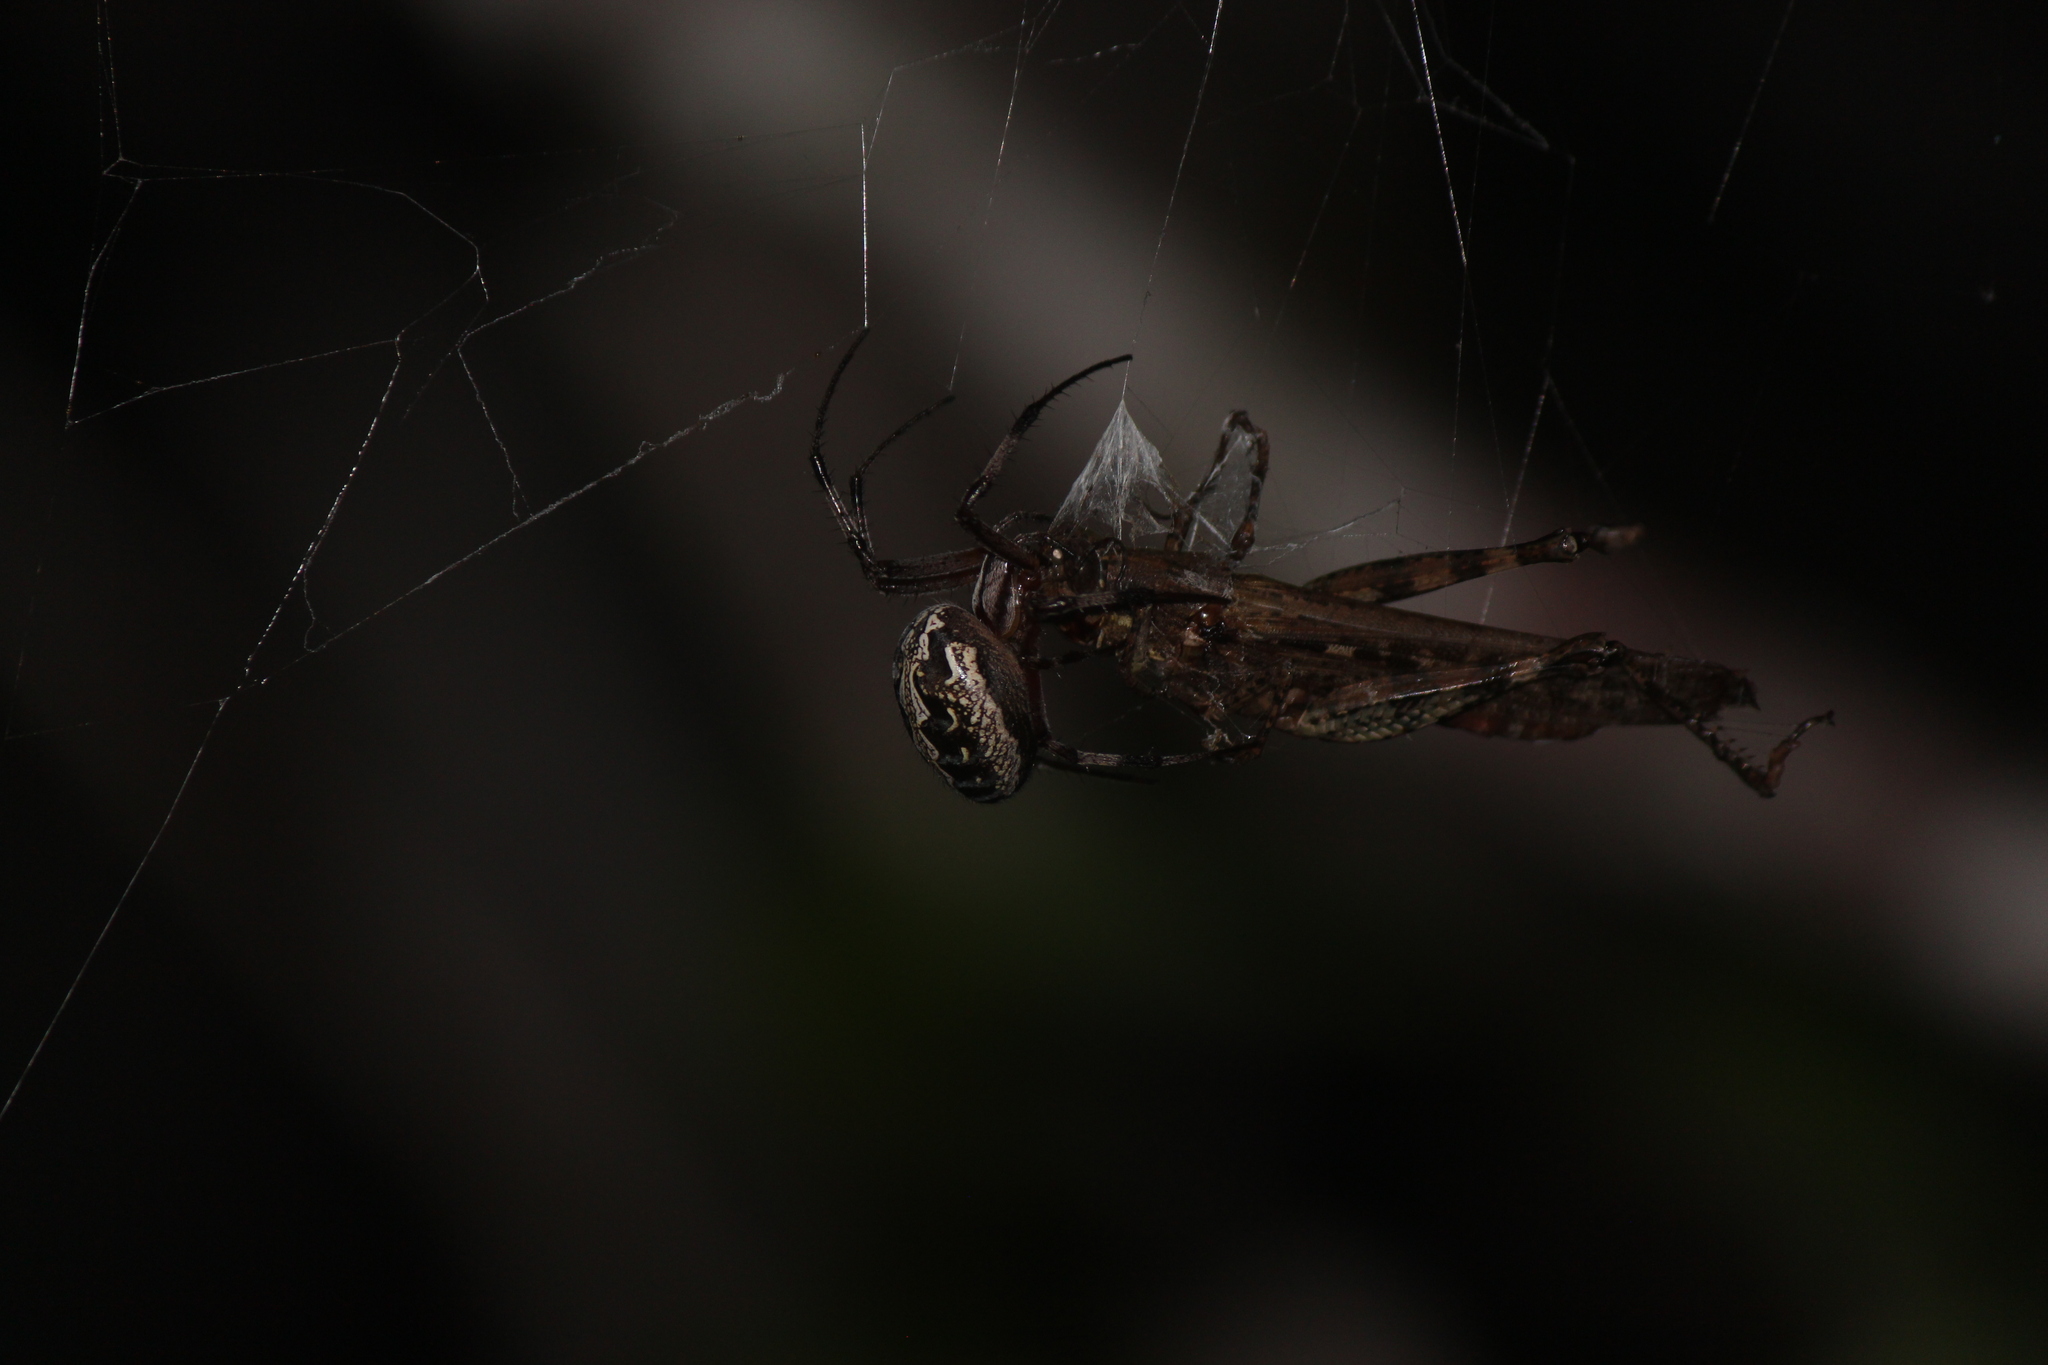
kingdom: Animalia
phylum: Arthropoda
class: Arachnida
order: Araneae
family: Araneidae
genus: Neoscona
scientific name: Neoscona oaxacensis
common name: Orb weavers
